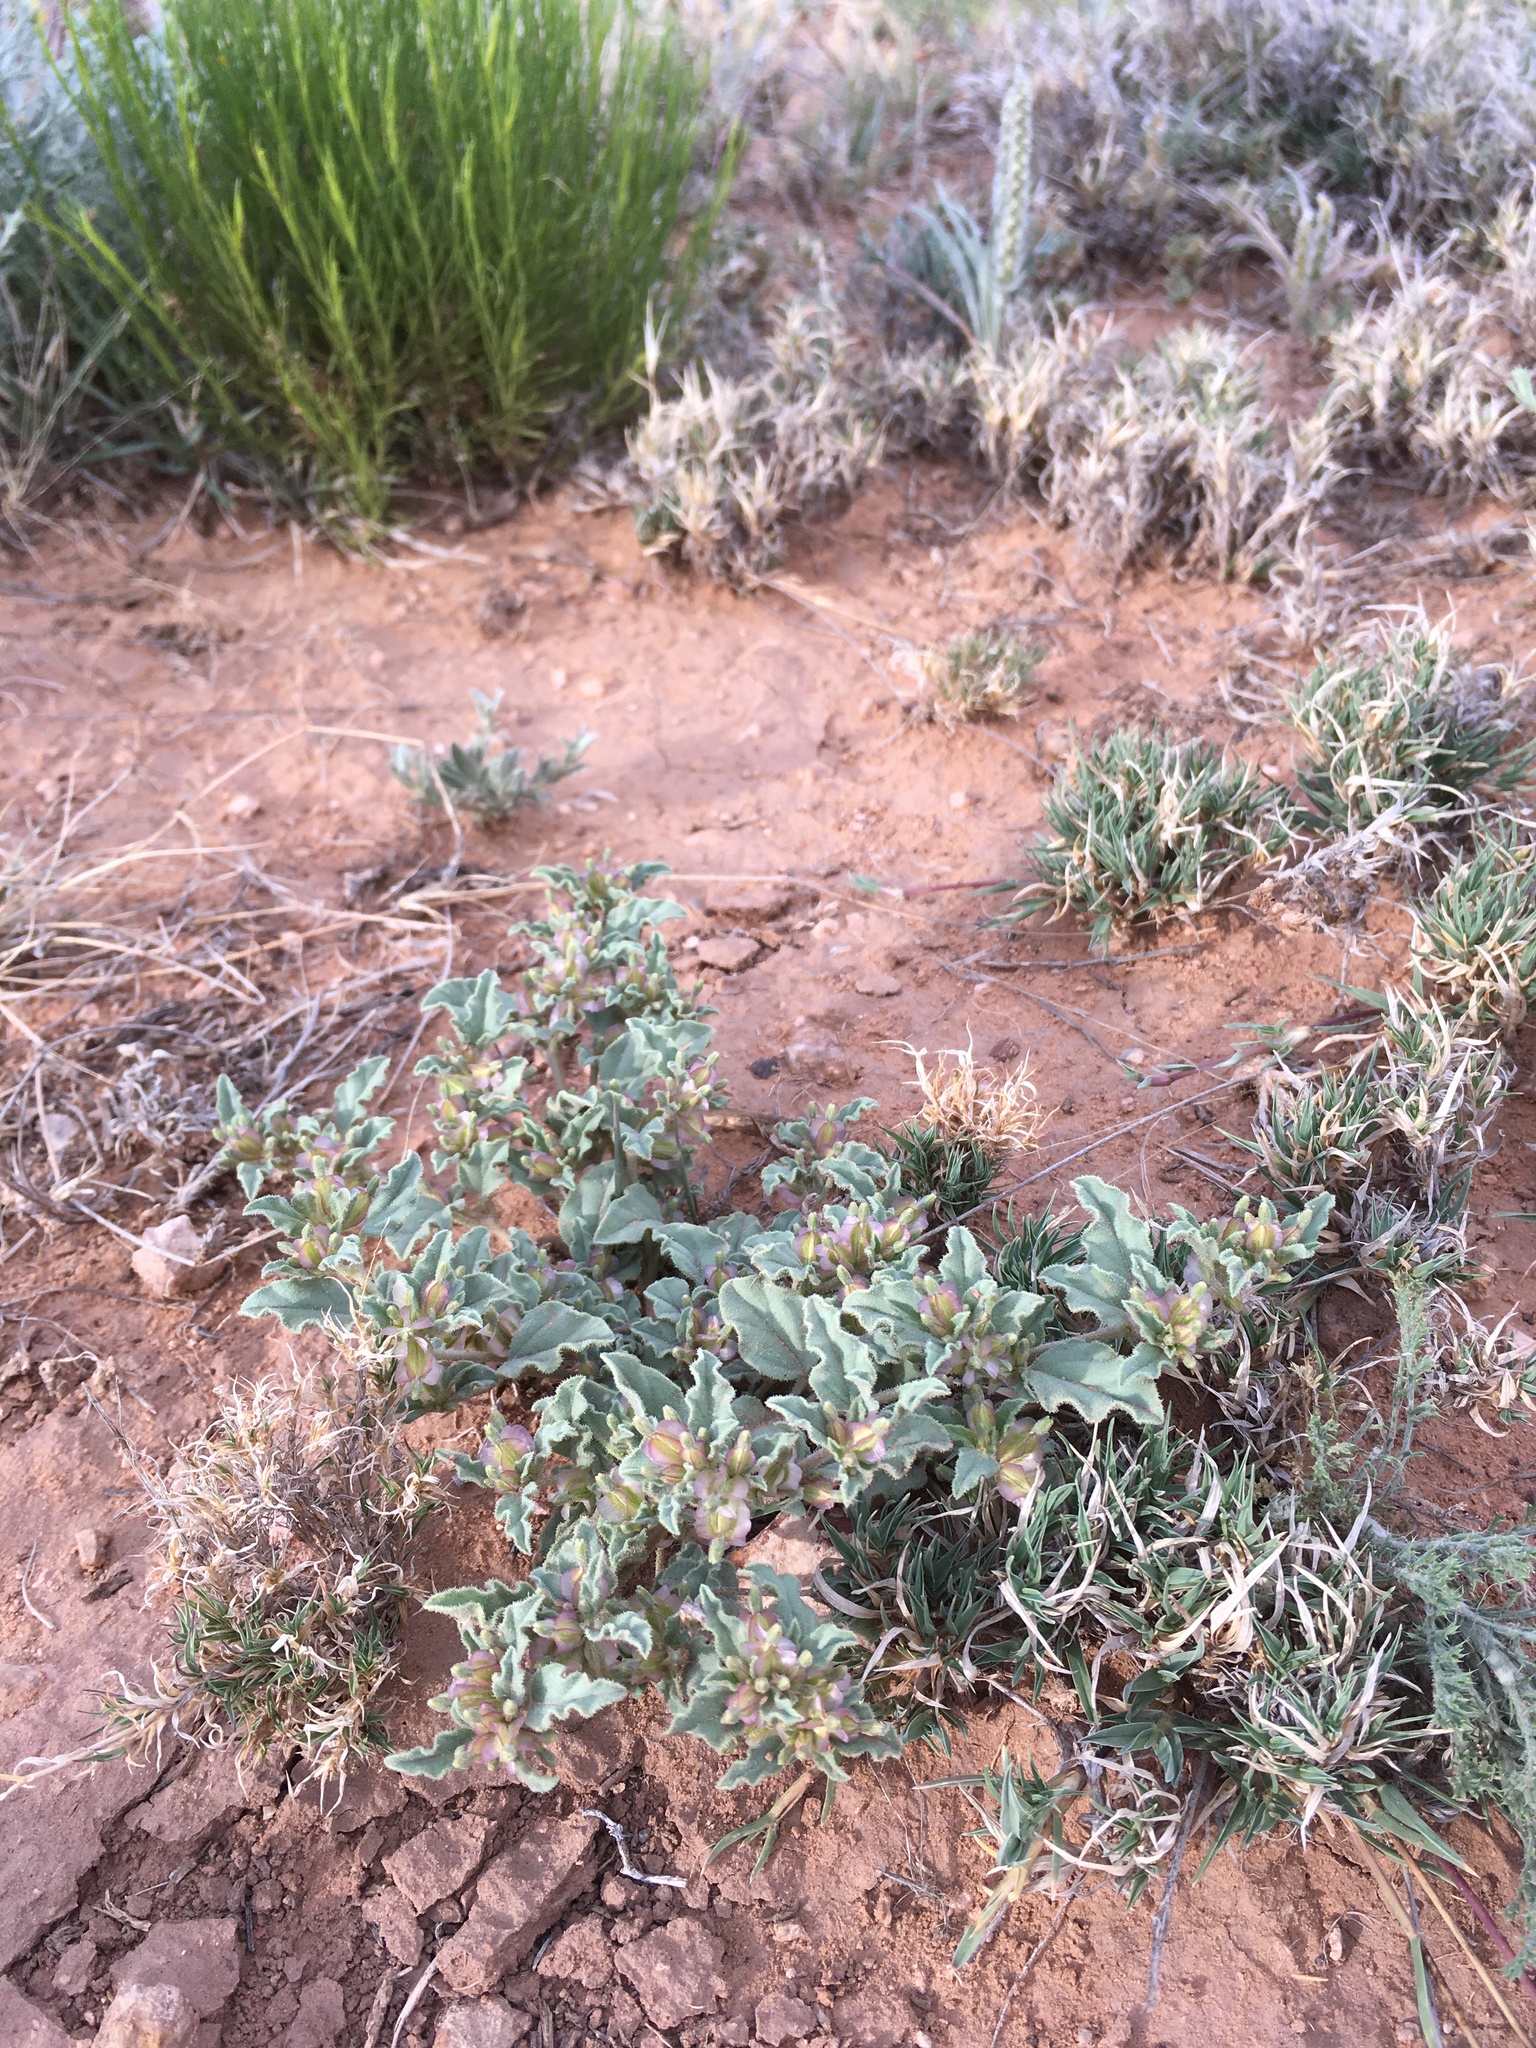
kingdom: Plantae
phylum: Tracheophyta
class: Magnoliopsida
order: Caryophyllales
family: Nyctaginaceae
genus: Acleisanthes
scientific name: Acleisanthes diffusa
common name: Spreading moonpod
